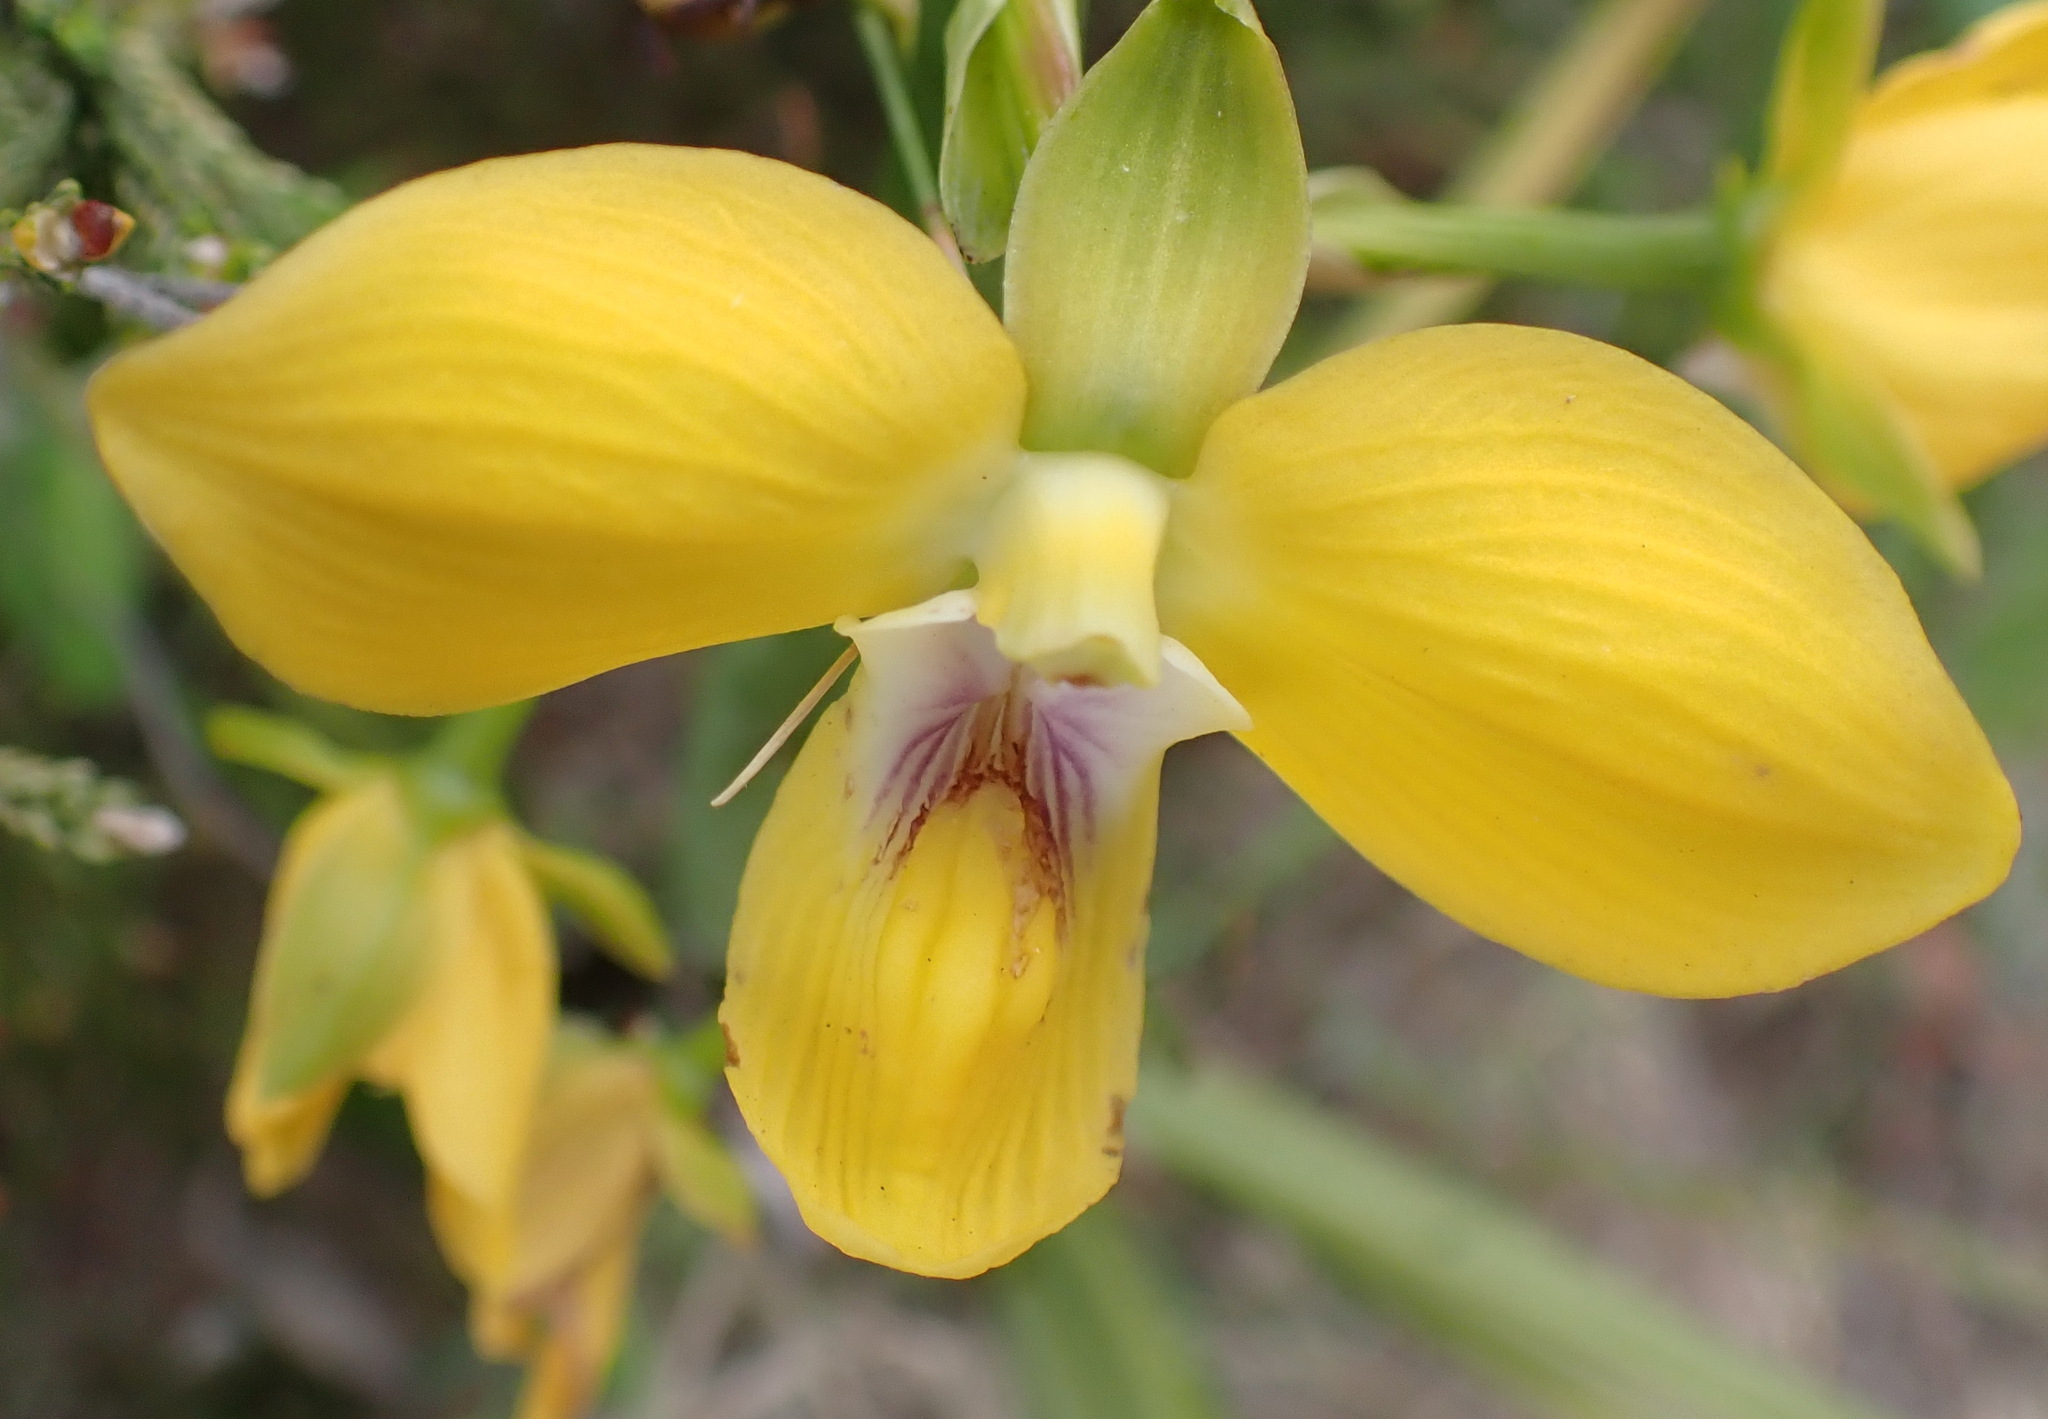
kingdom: Plantae
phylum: Tracheophyta
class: Liliopsida
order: Asparagales
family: Orchidaceae
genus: Eulophia
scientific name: Eulophia speciosa
